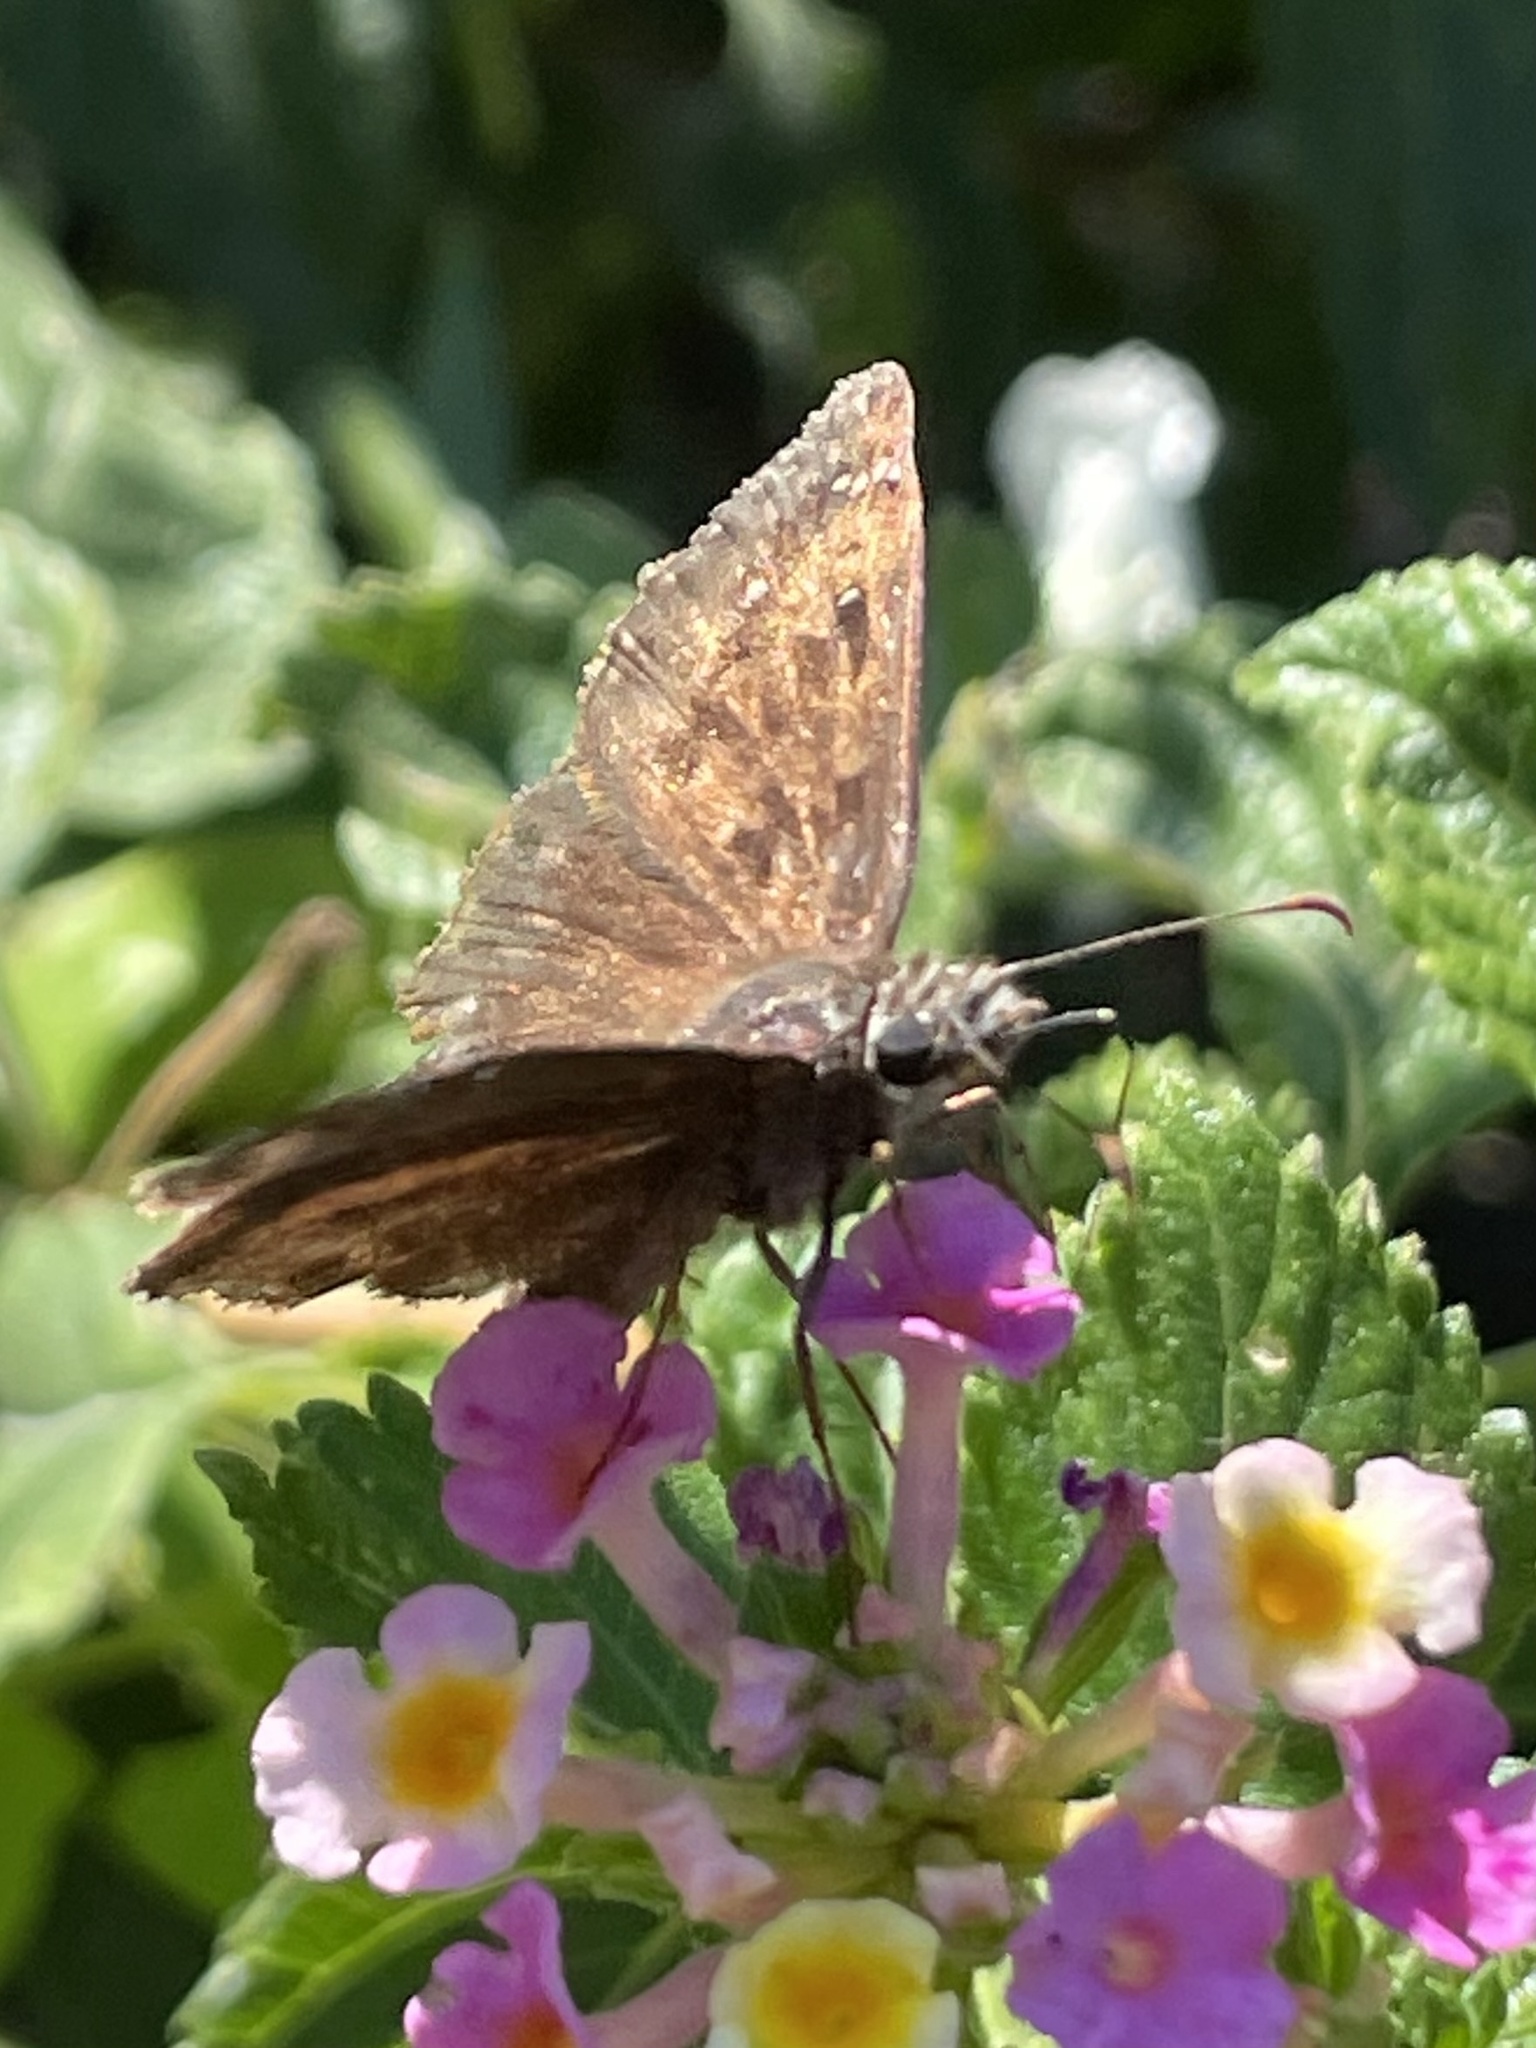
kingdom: Animalia
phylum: Arthropoda
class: Insecta
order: Lepidoptera
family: Hesperiidae
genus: Erynnis
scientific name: Erynnis horatius
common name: Horace's duskywing
